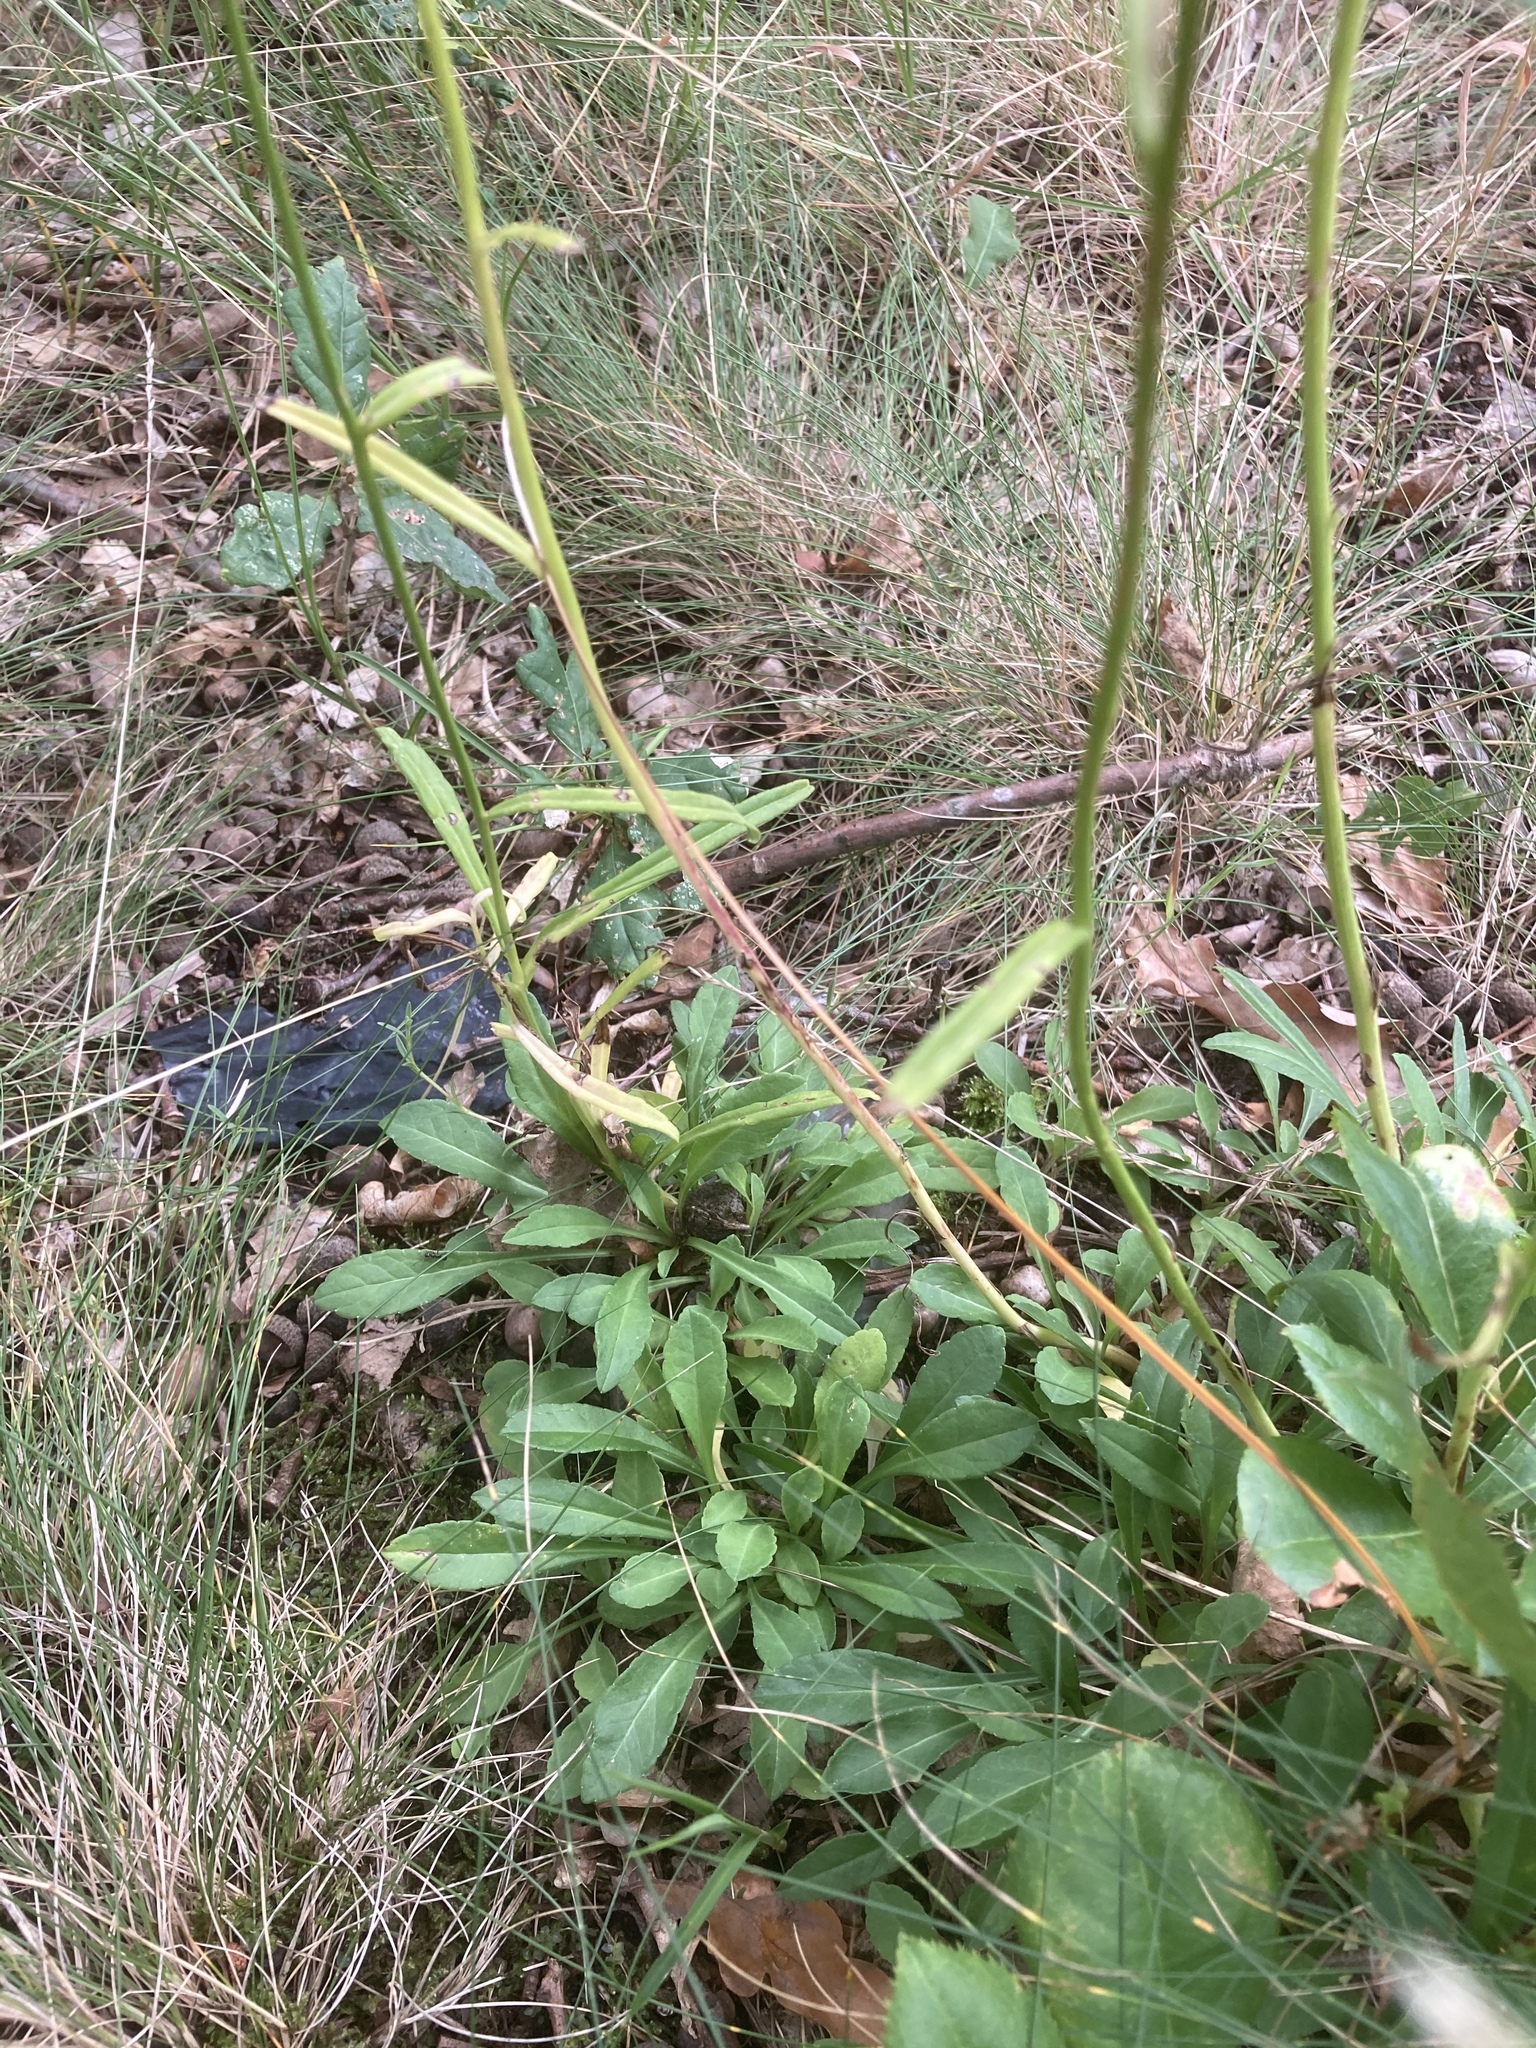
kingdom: Plantae
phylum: Tracheophyta
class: Magnoliopsida
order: Asterales
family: Campanulaceae
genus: Campanula
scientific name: Campanula persicifolia
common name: Peach-leaved bellflower
